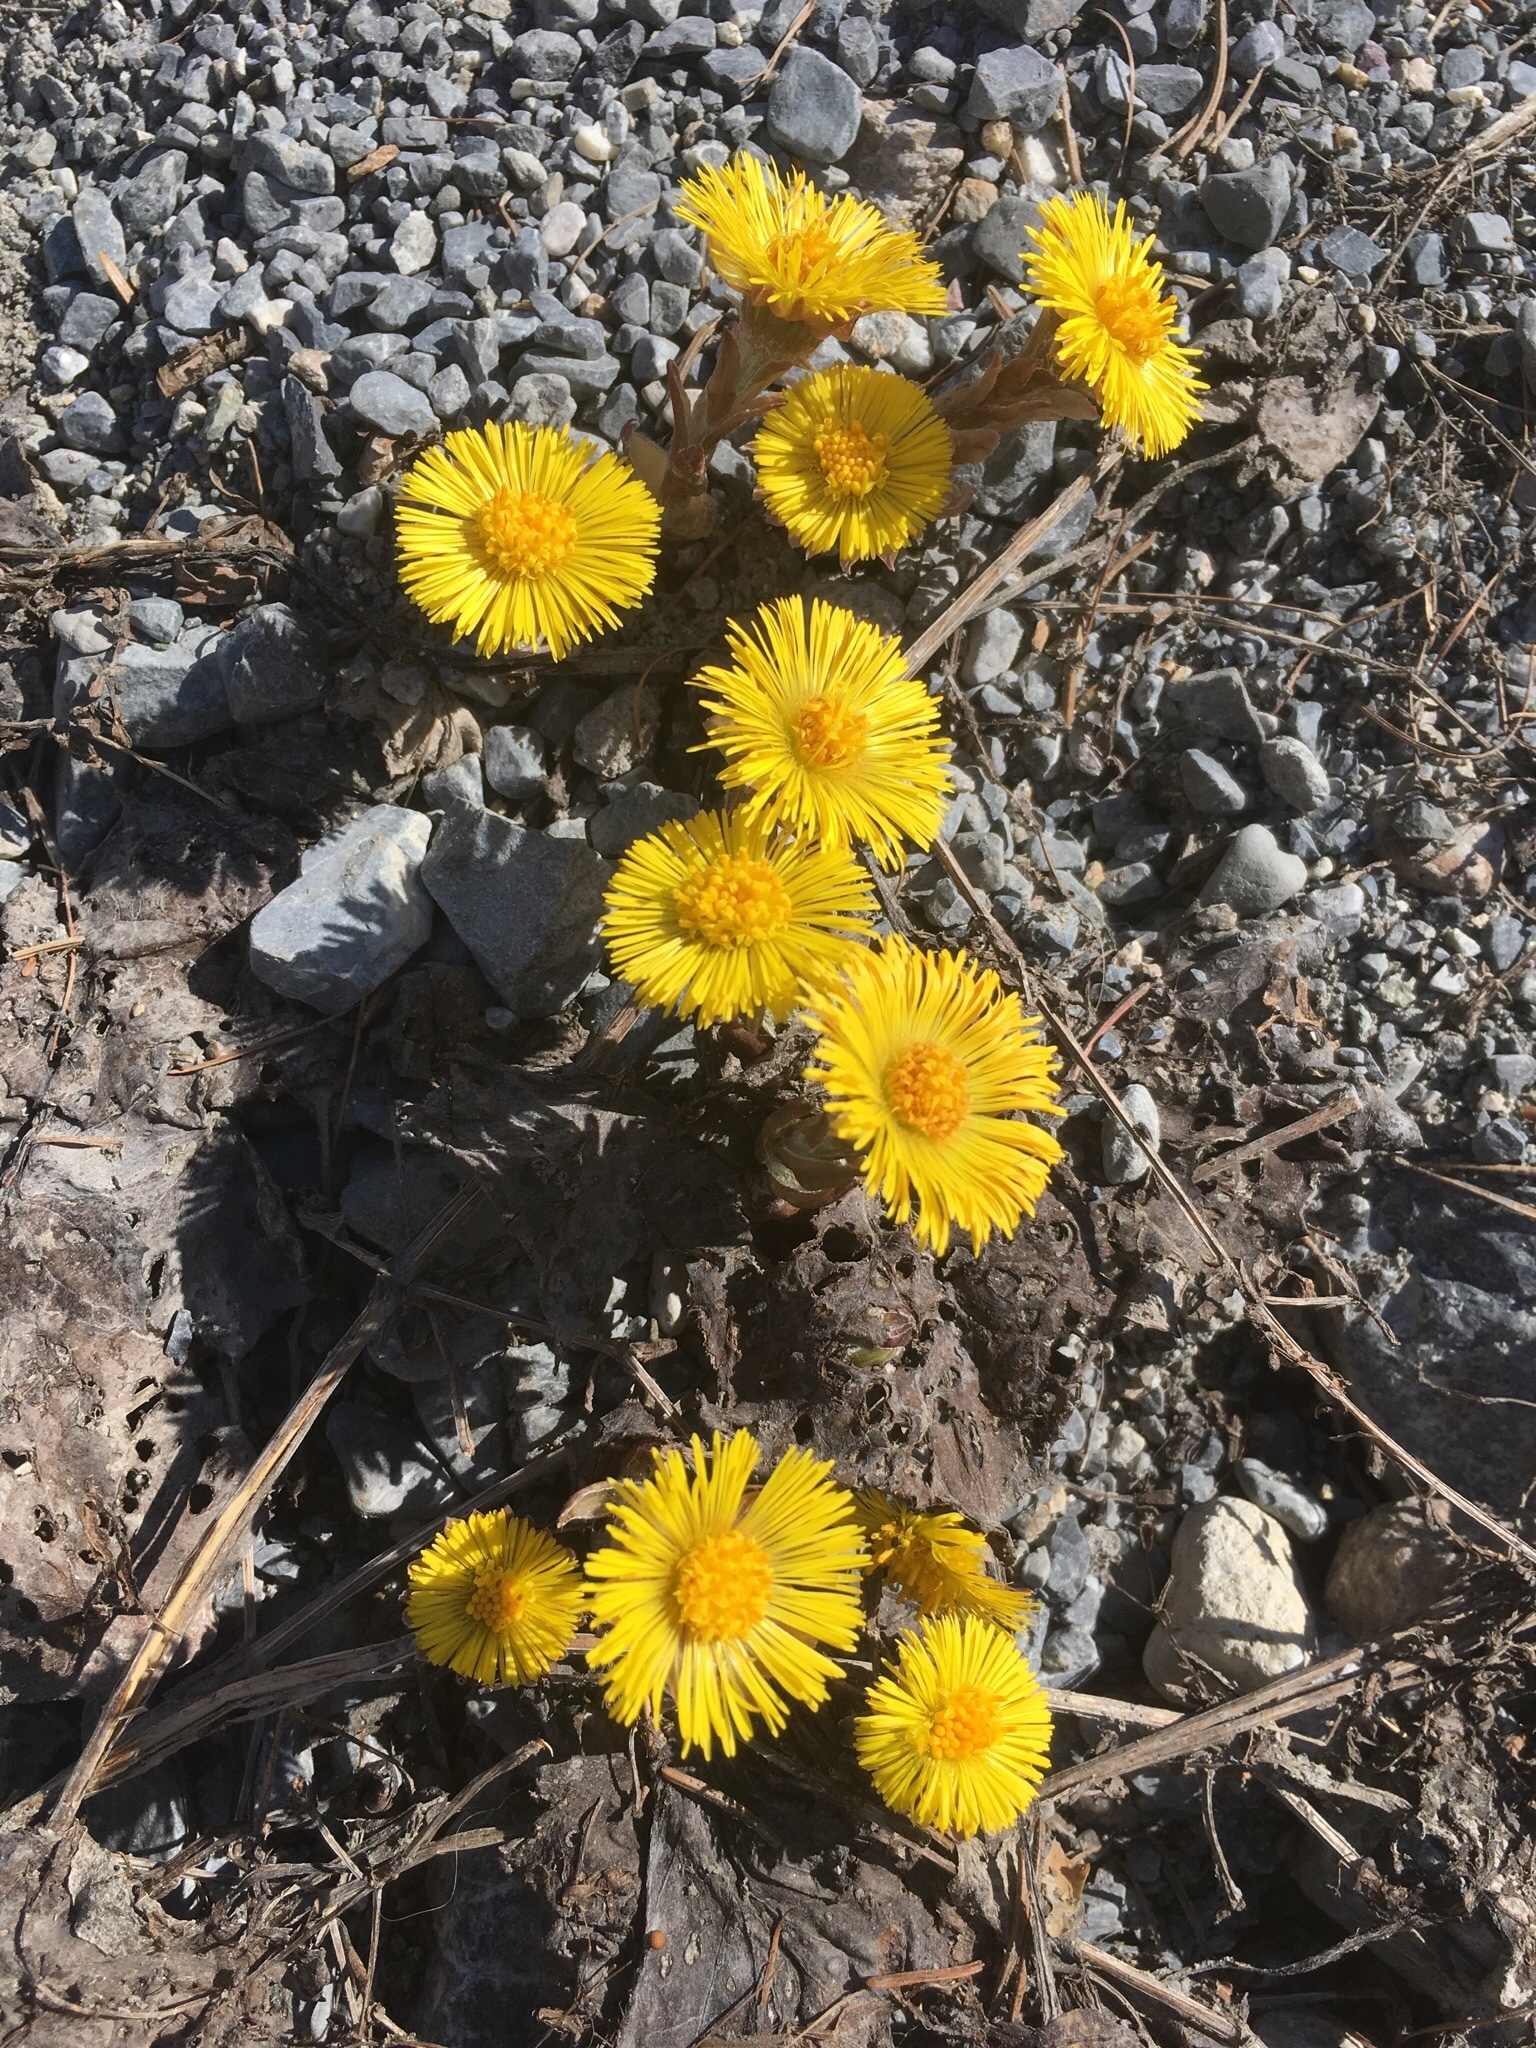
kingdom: Plantae
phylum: Tracheophyta
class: Magnoliopsida
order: Asterales
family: Asteraceae
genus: Tussilago
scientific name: Tussilago farfara
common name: Coltsfoot
